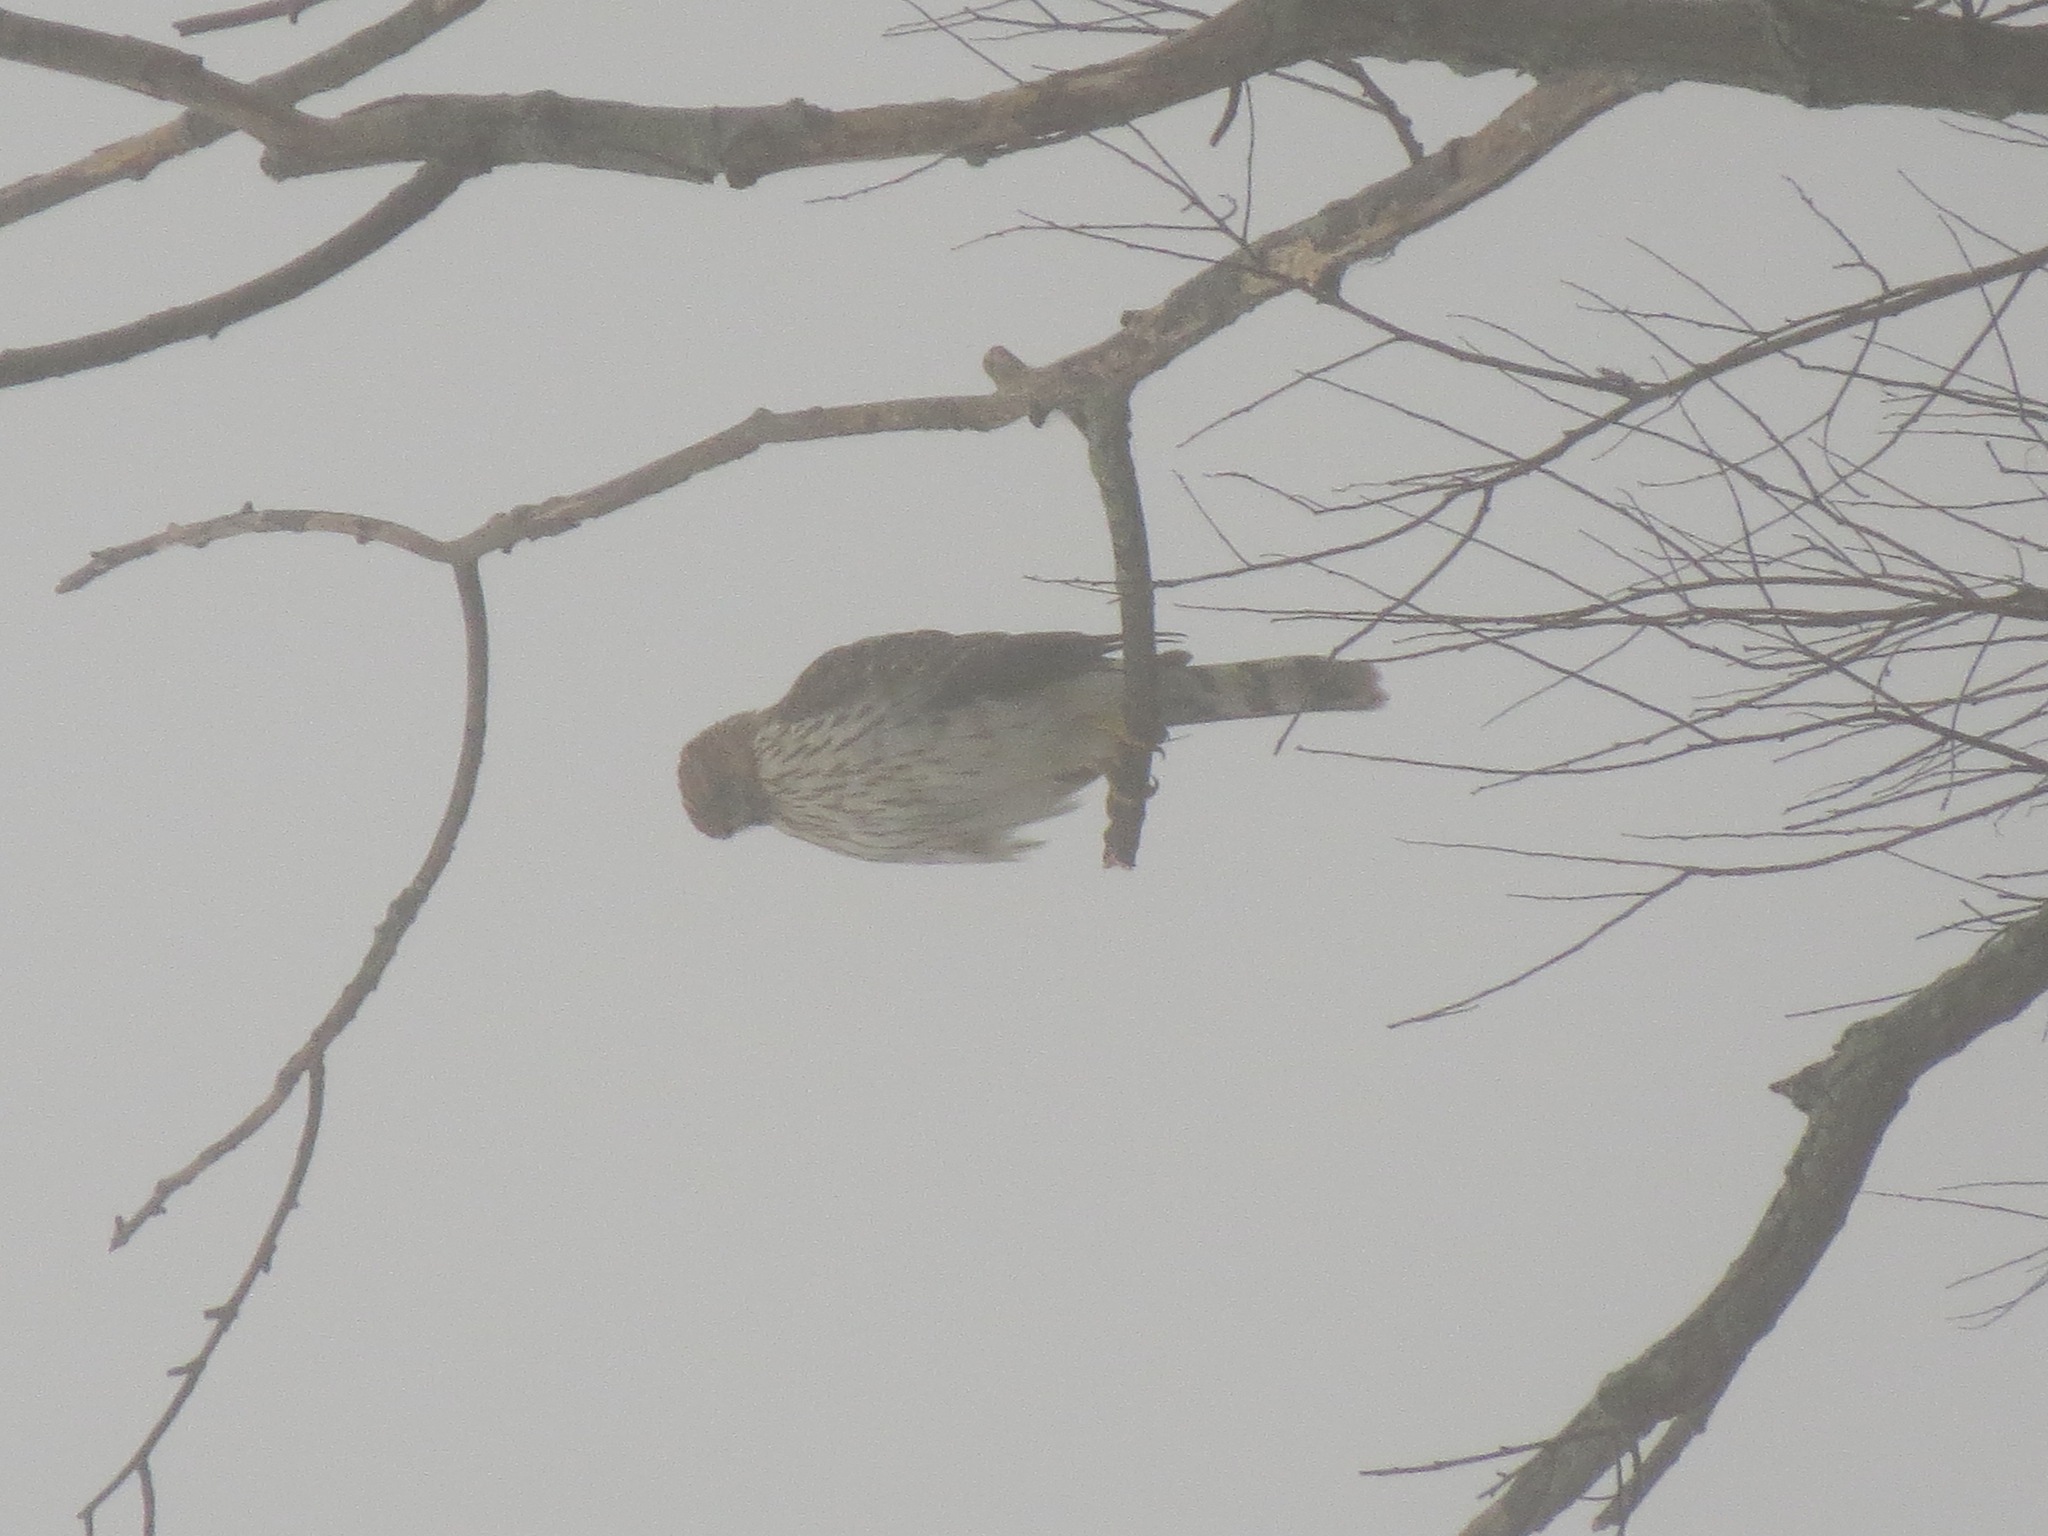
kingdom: Animalia
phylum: Chordata
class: Aves
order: Accipitriformes
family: Accipitridae
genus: Accipiter
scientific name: Accipiter cooperii
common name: Cooper's hawk
